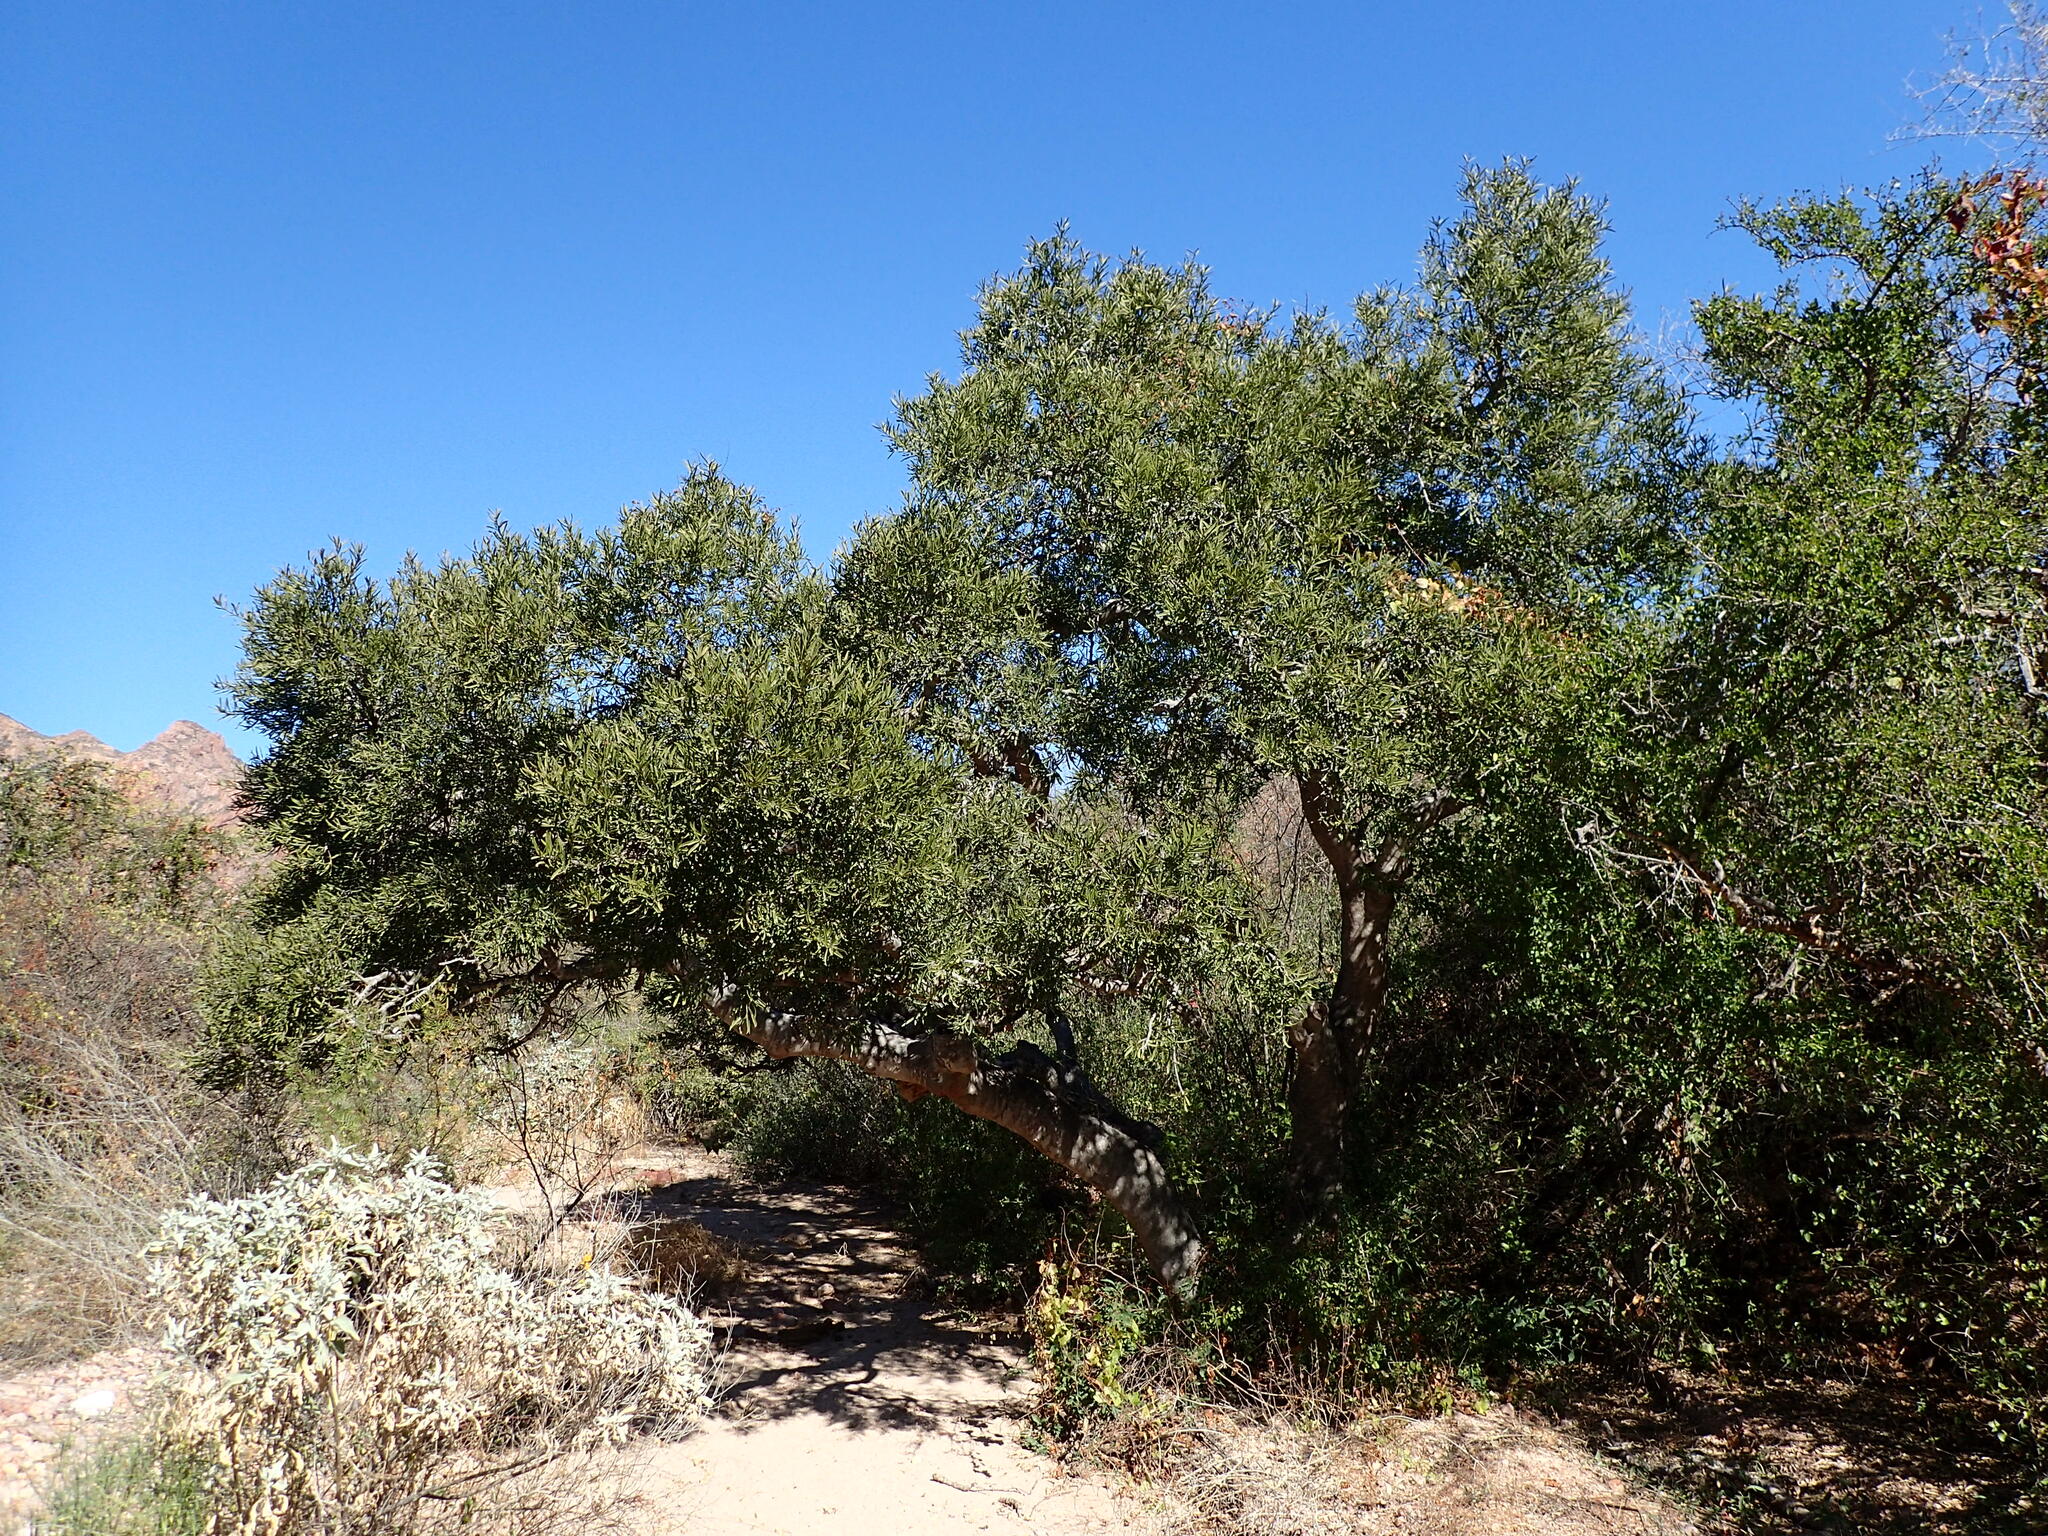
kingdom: Plantae
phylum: Tracheophyta
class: Magnoliopsida
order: Brassicales
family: Stixaceae
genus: Forchhammeria
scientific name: Forchhammeria watsonii
